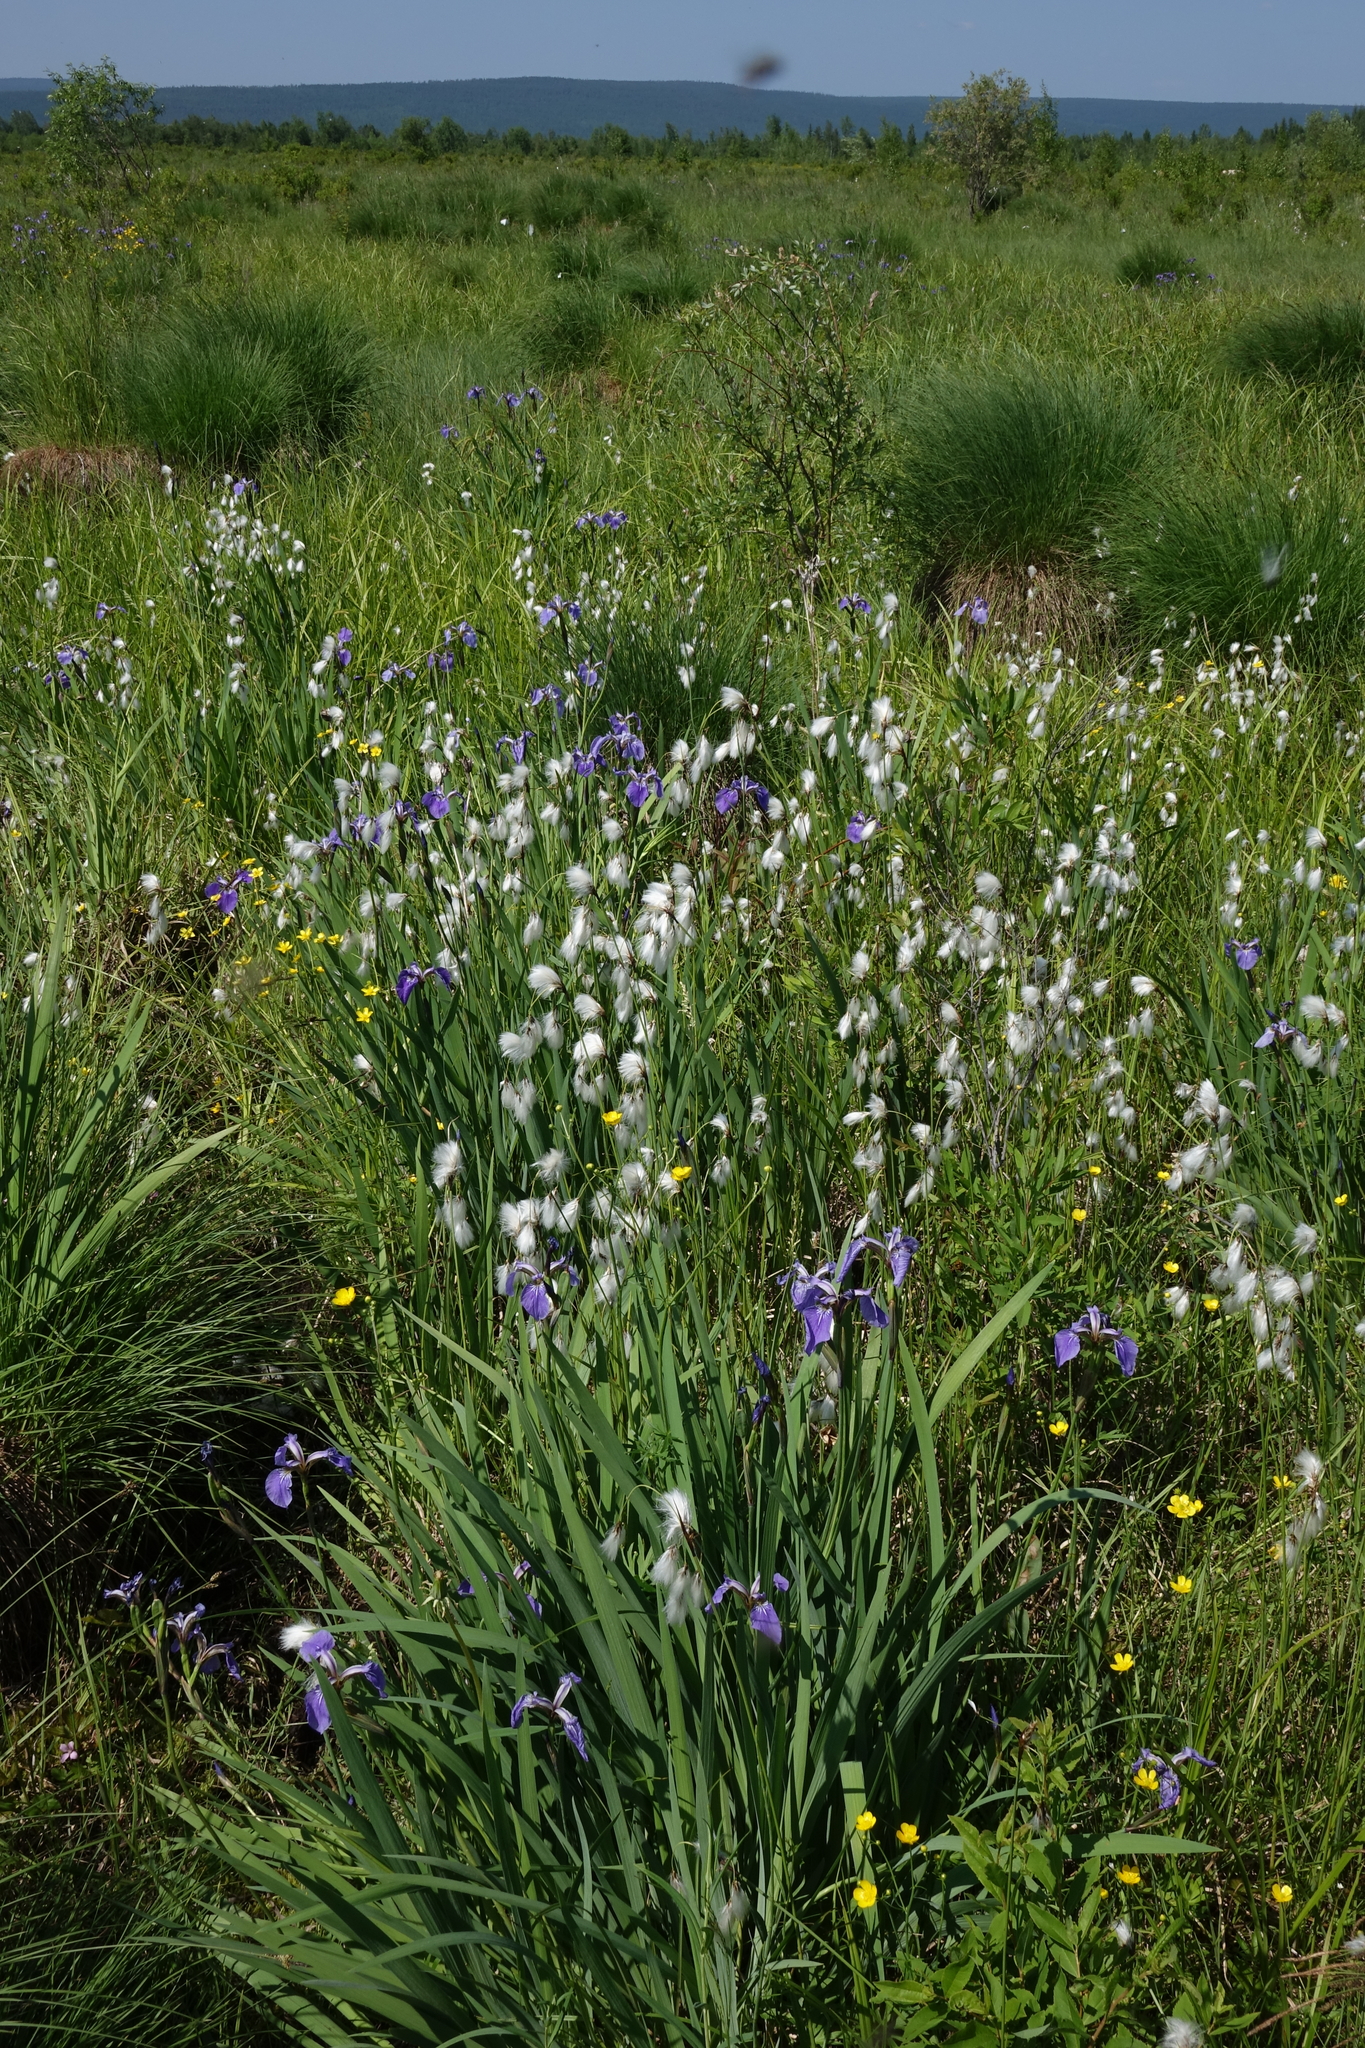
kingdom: Plantae
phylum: Tracheophyta
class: Liliopsida
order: Asparagales
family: Iridaceae
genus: Iris
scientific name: Iris setosa
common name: Arctic blue flag
